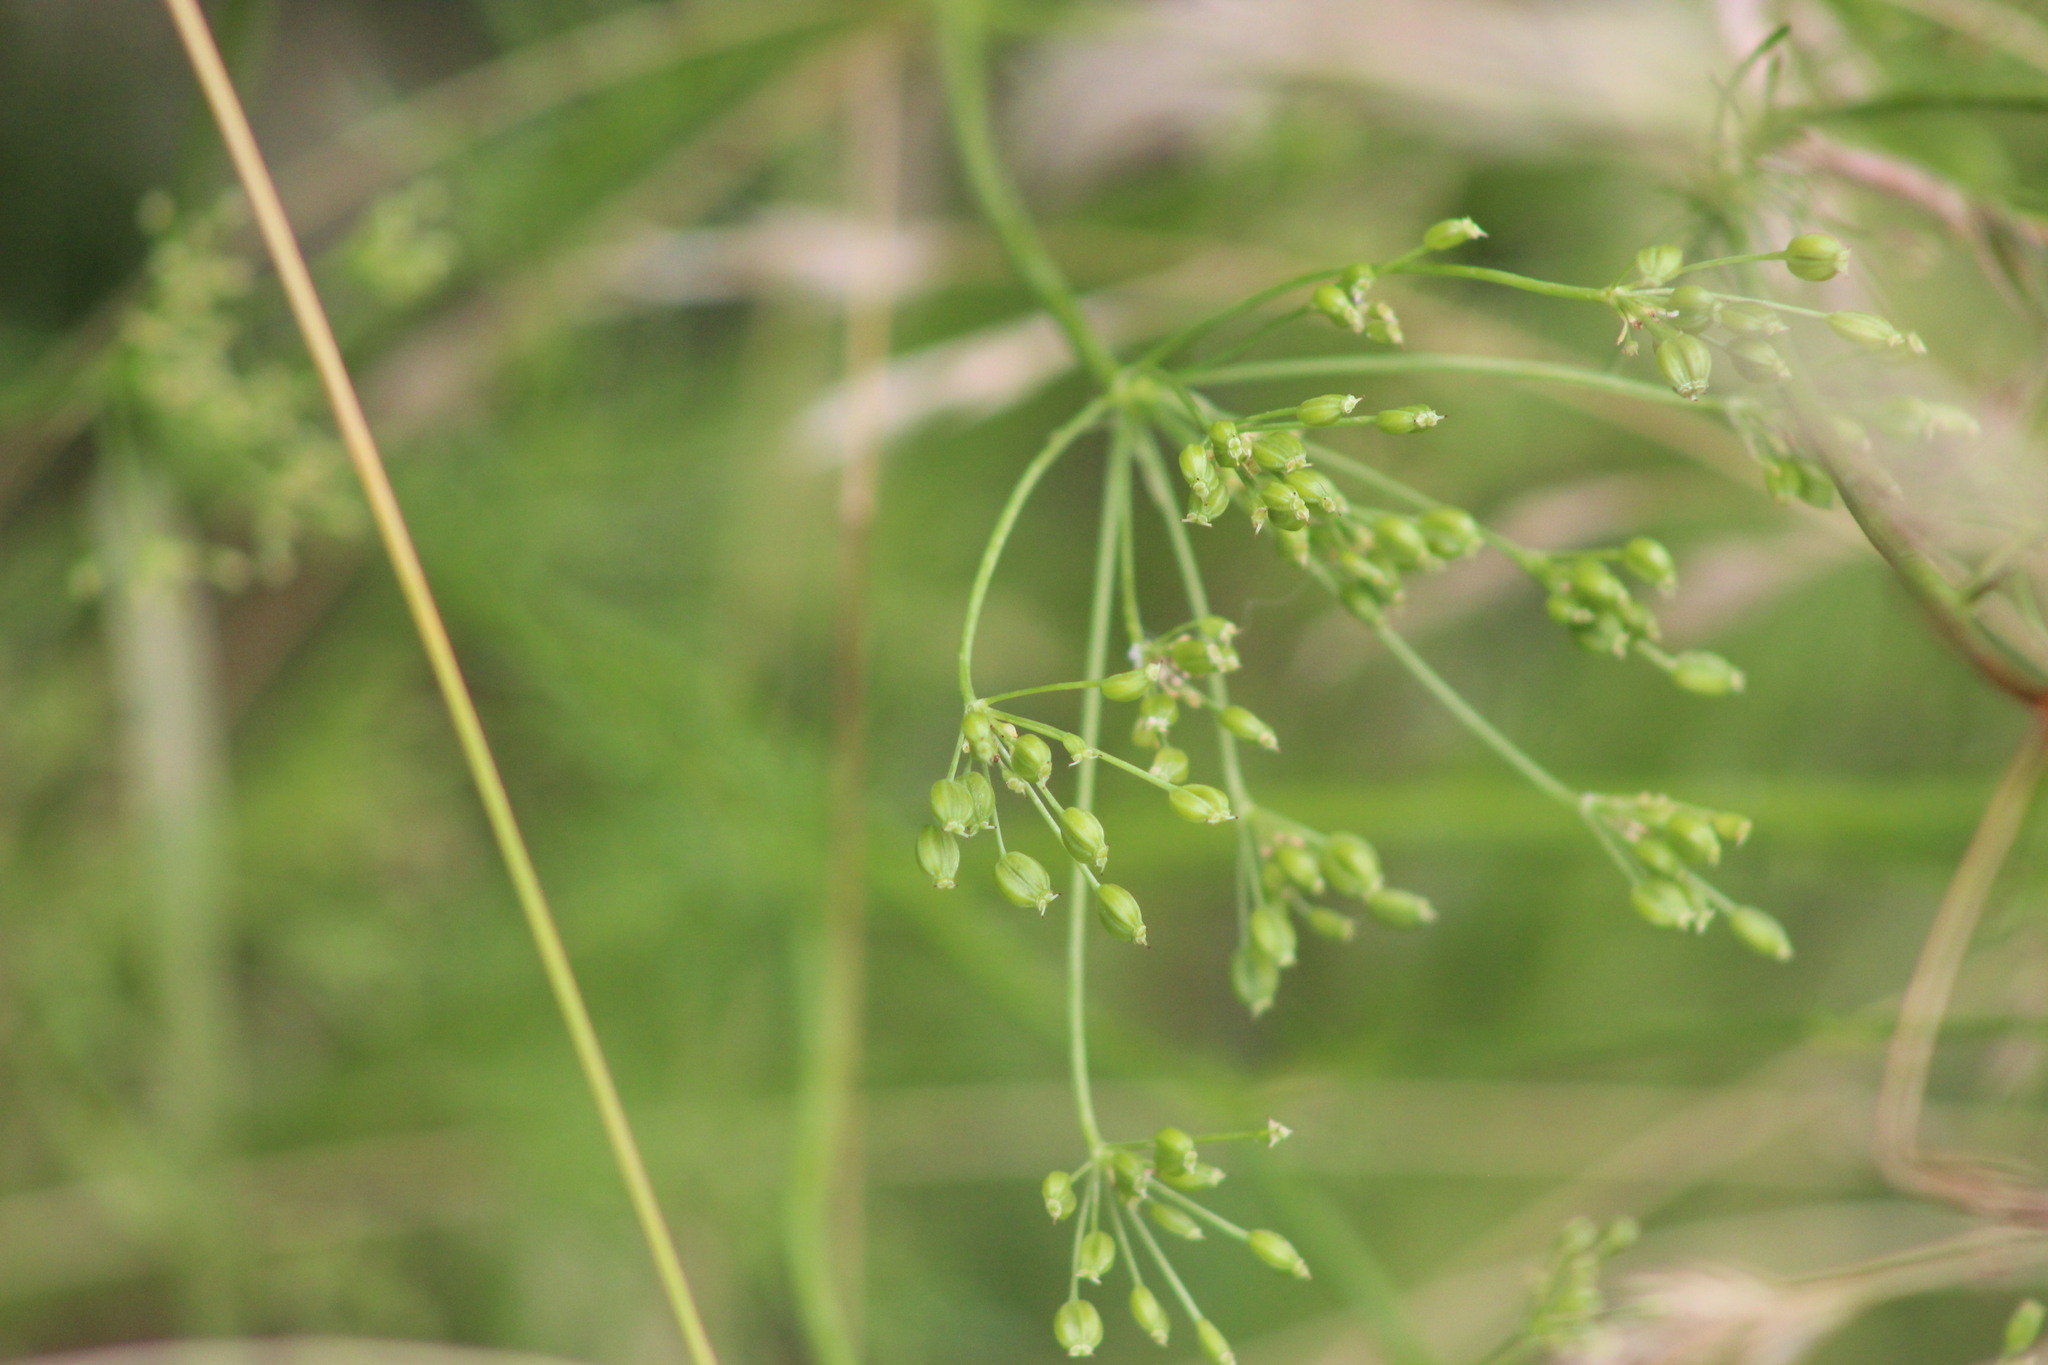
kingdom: Plantae
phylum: Tracheophyta
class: Magnoliopsida
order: Apiales
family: Apiaceae
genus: Carum
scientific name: Carum carvi
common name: Caraway
